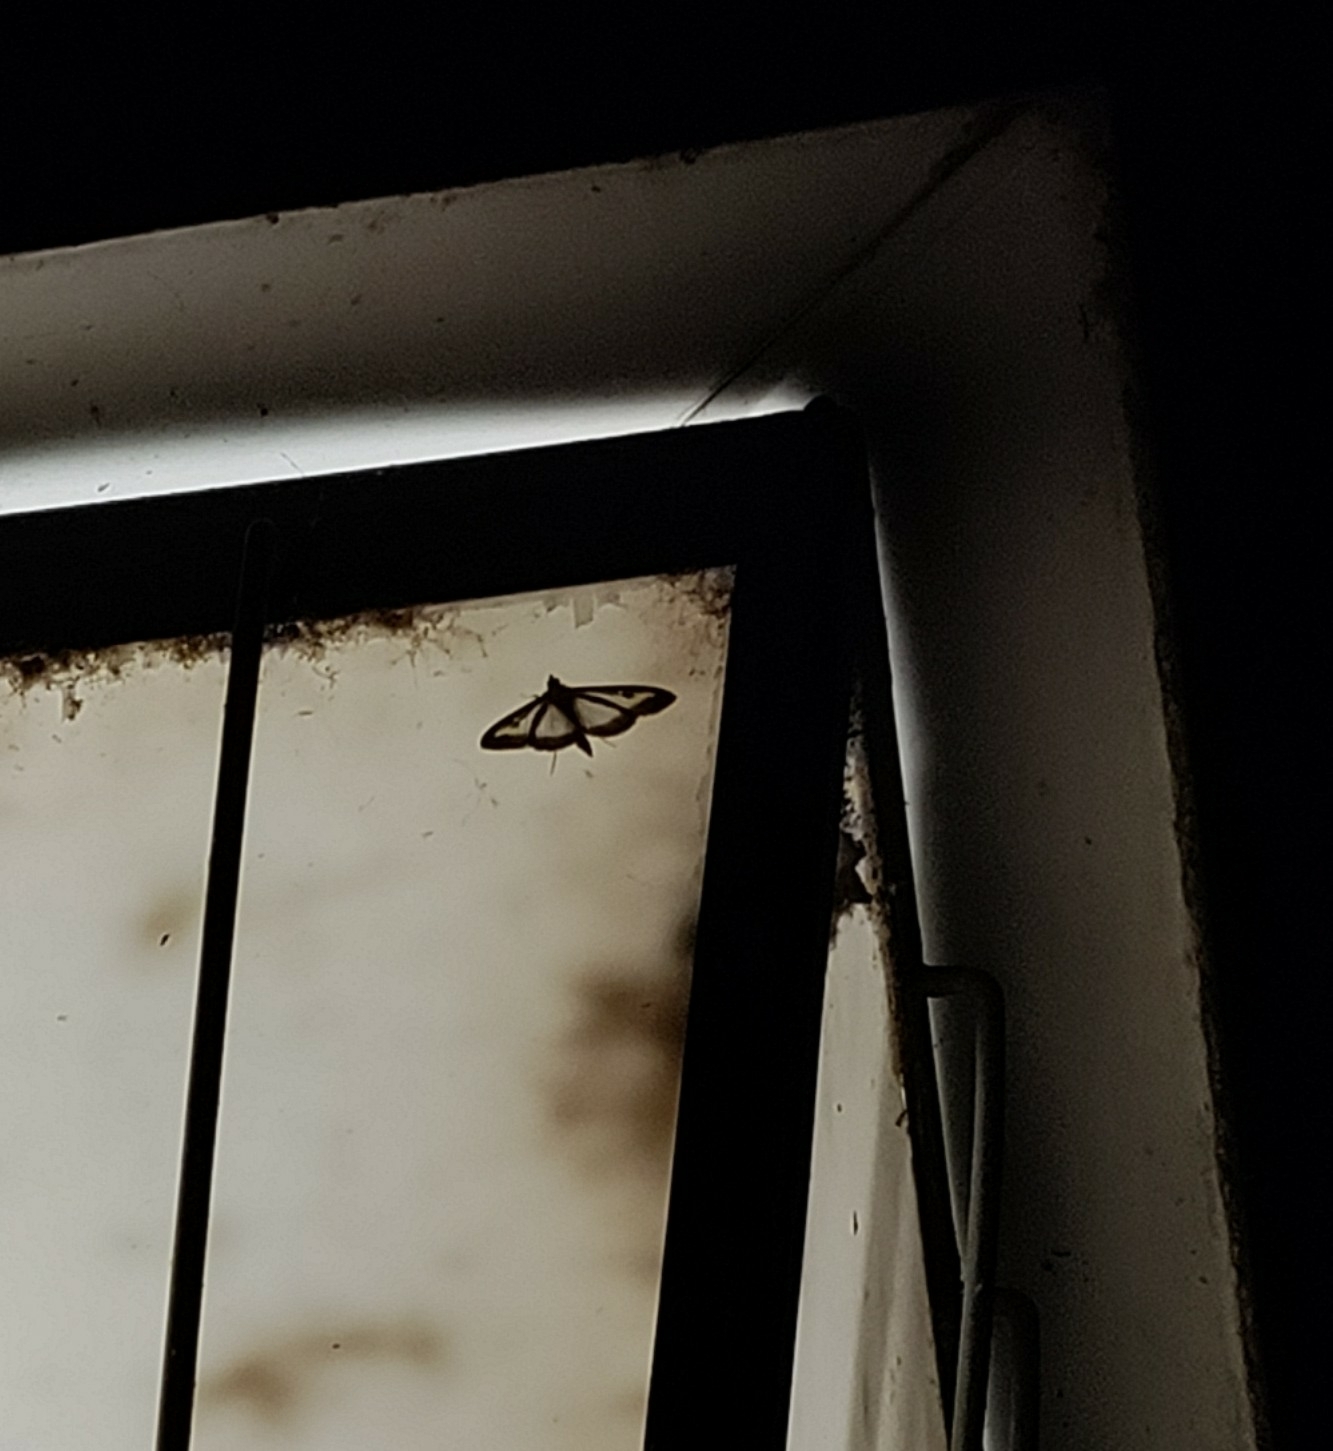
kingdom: Animalia
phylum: Arthropoda
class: Insecta
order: Lepidoptera
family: Crambidae
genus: Cydalima
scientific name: Cydalima perspectalis
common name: Box tree moth
